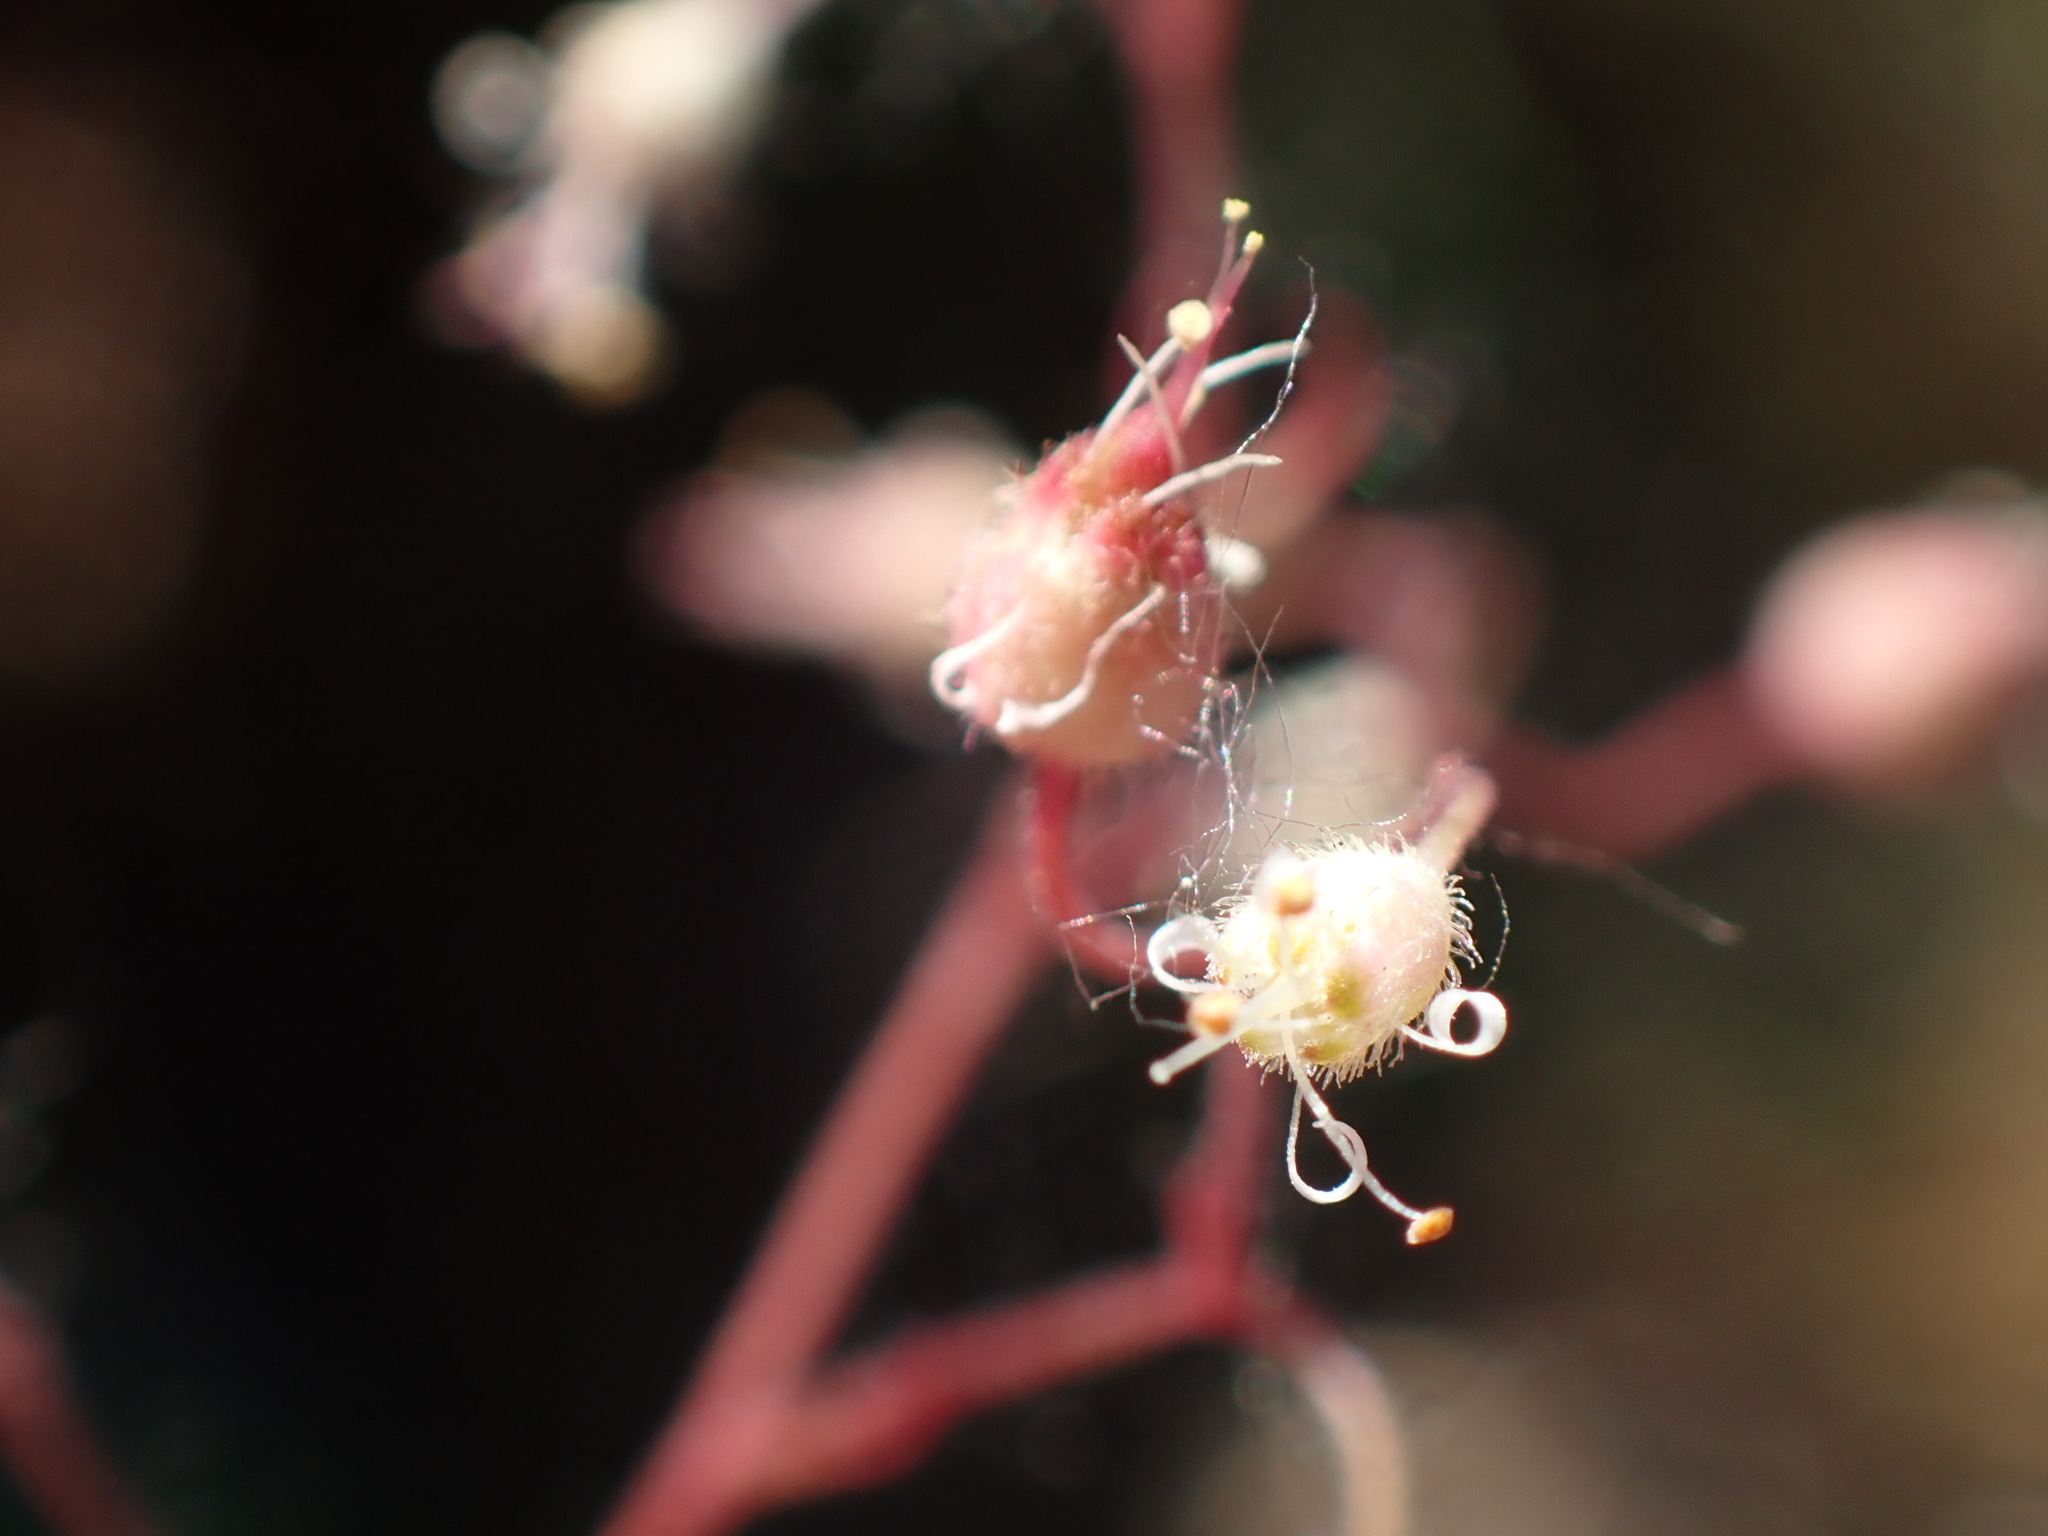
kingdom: Plantae
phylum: Tracheophyta
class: Magnoliopsida
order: Saxifragales
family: Saxifragaceae
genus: Heuchera
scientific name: Heuchera micrantha
